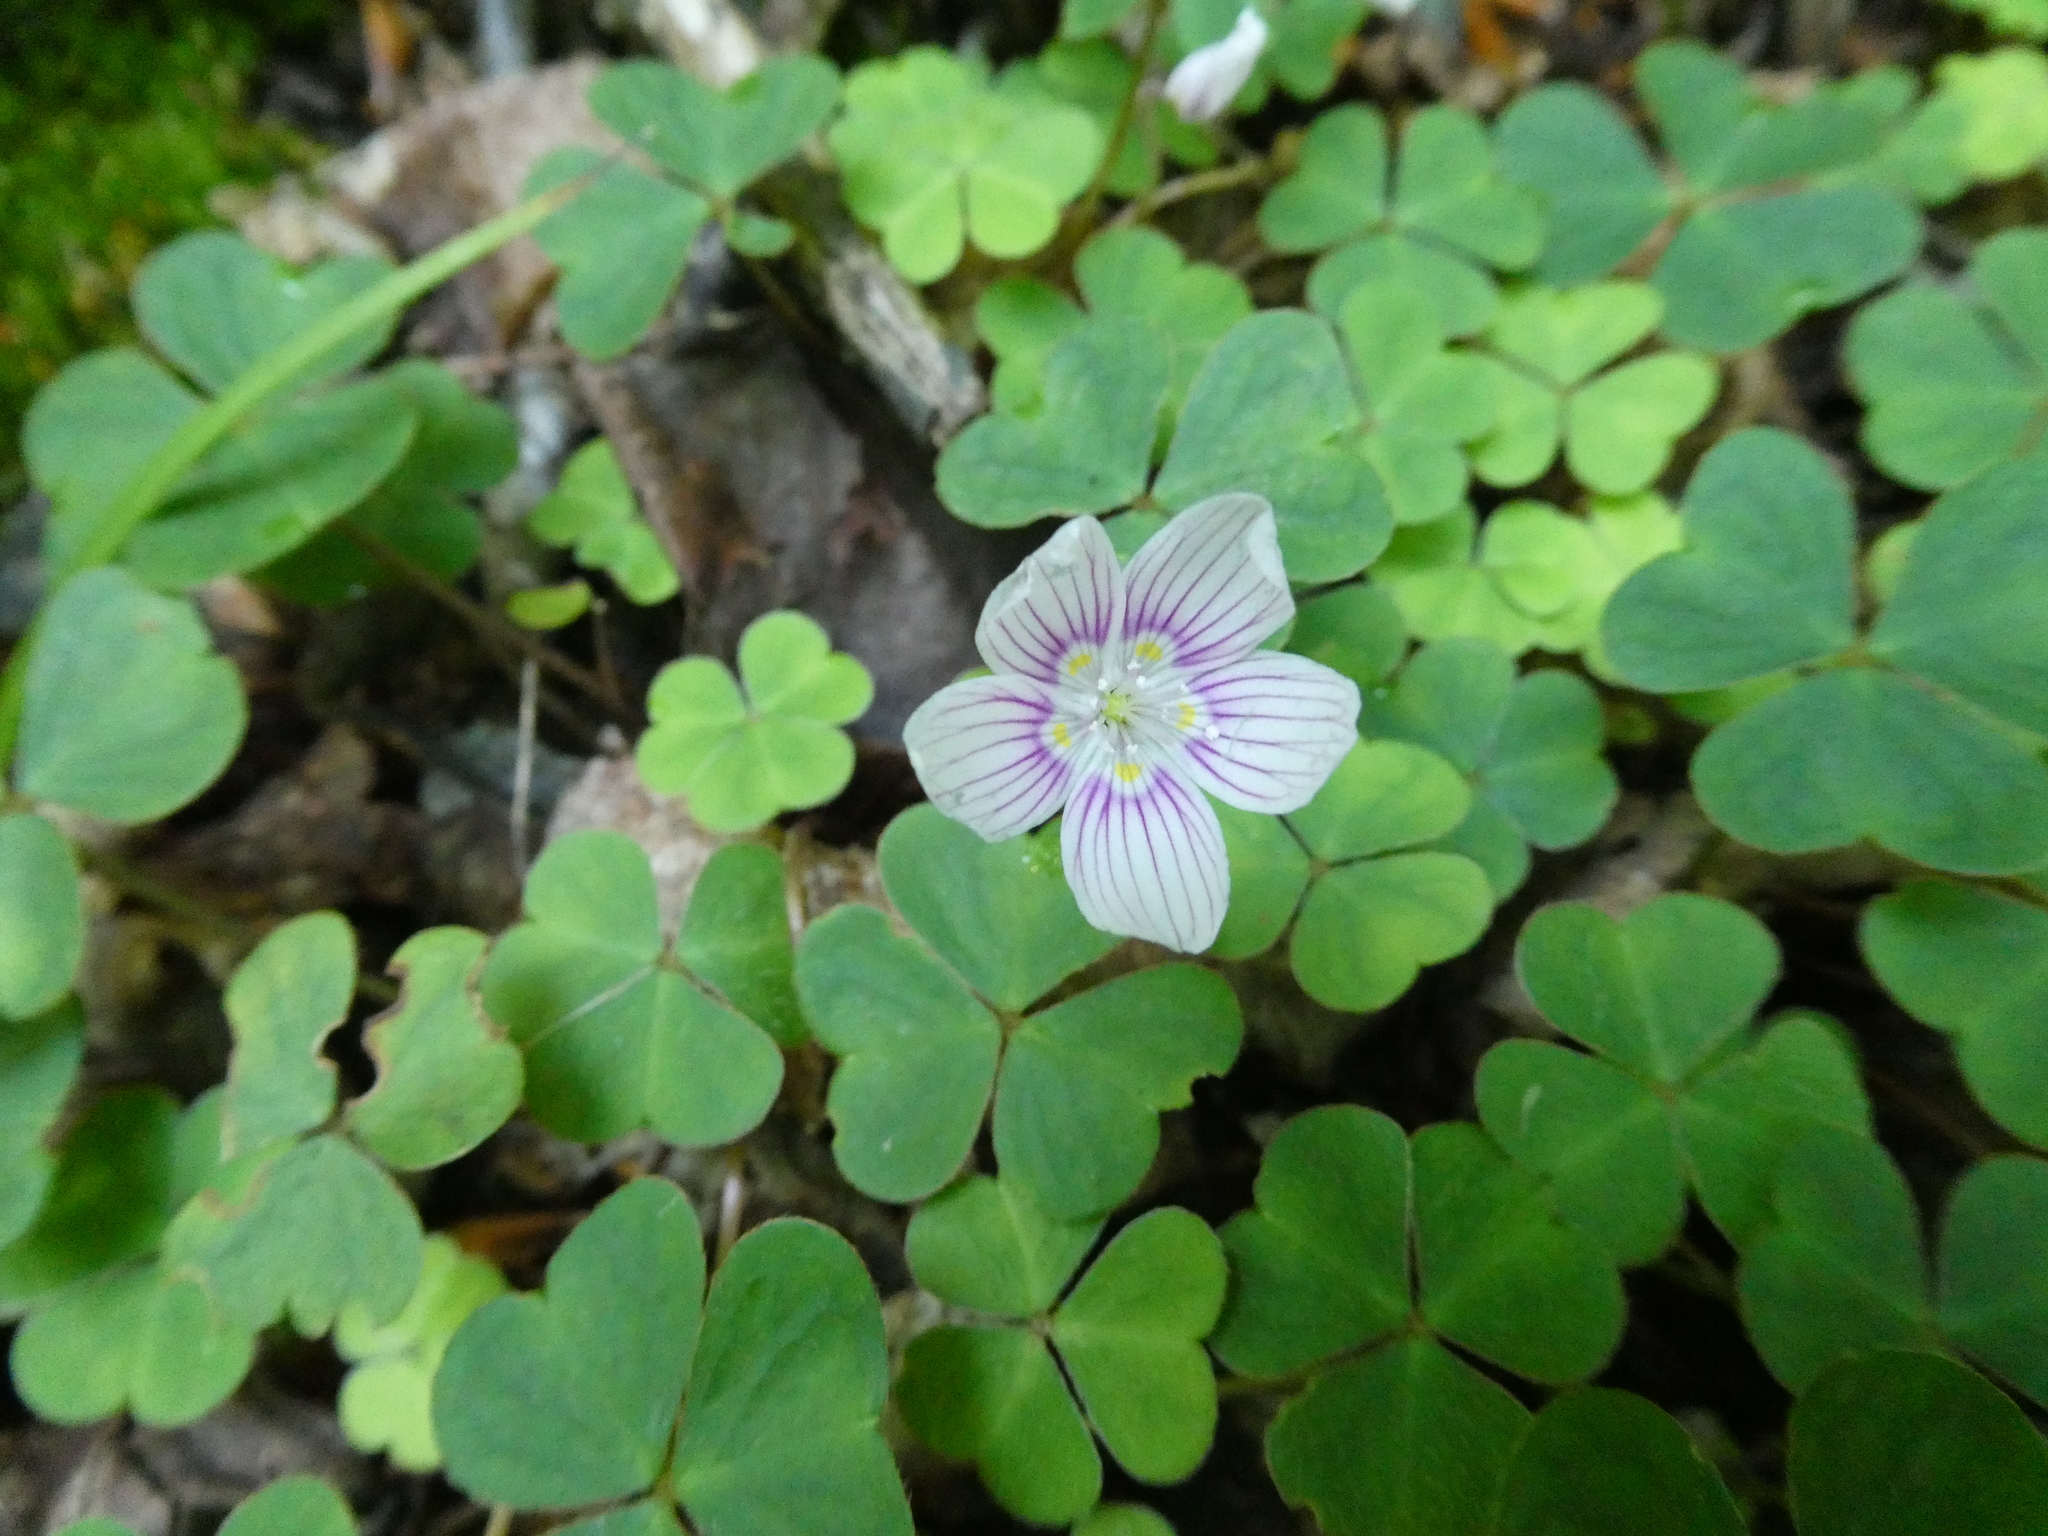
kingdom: Plantae
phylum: Tracheophyta
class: Magnoliopsida
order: Oxalidales
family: Oxalidaceae
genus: Oxalis
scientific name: Oxalis montana
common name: American wood-sorrel
